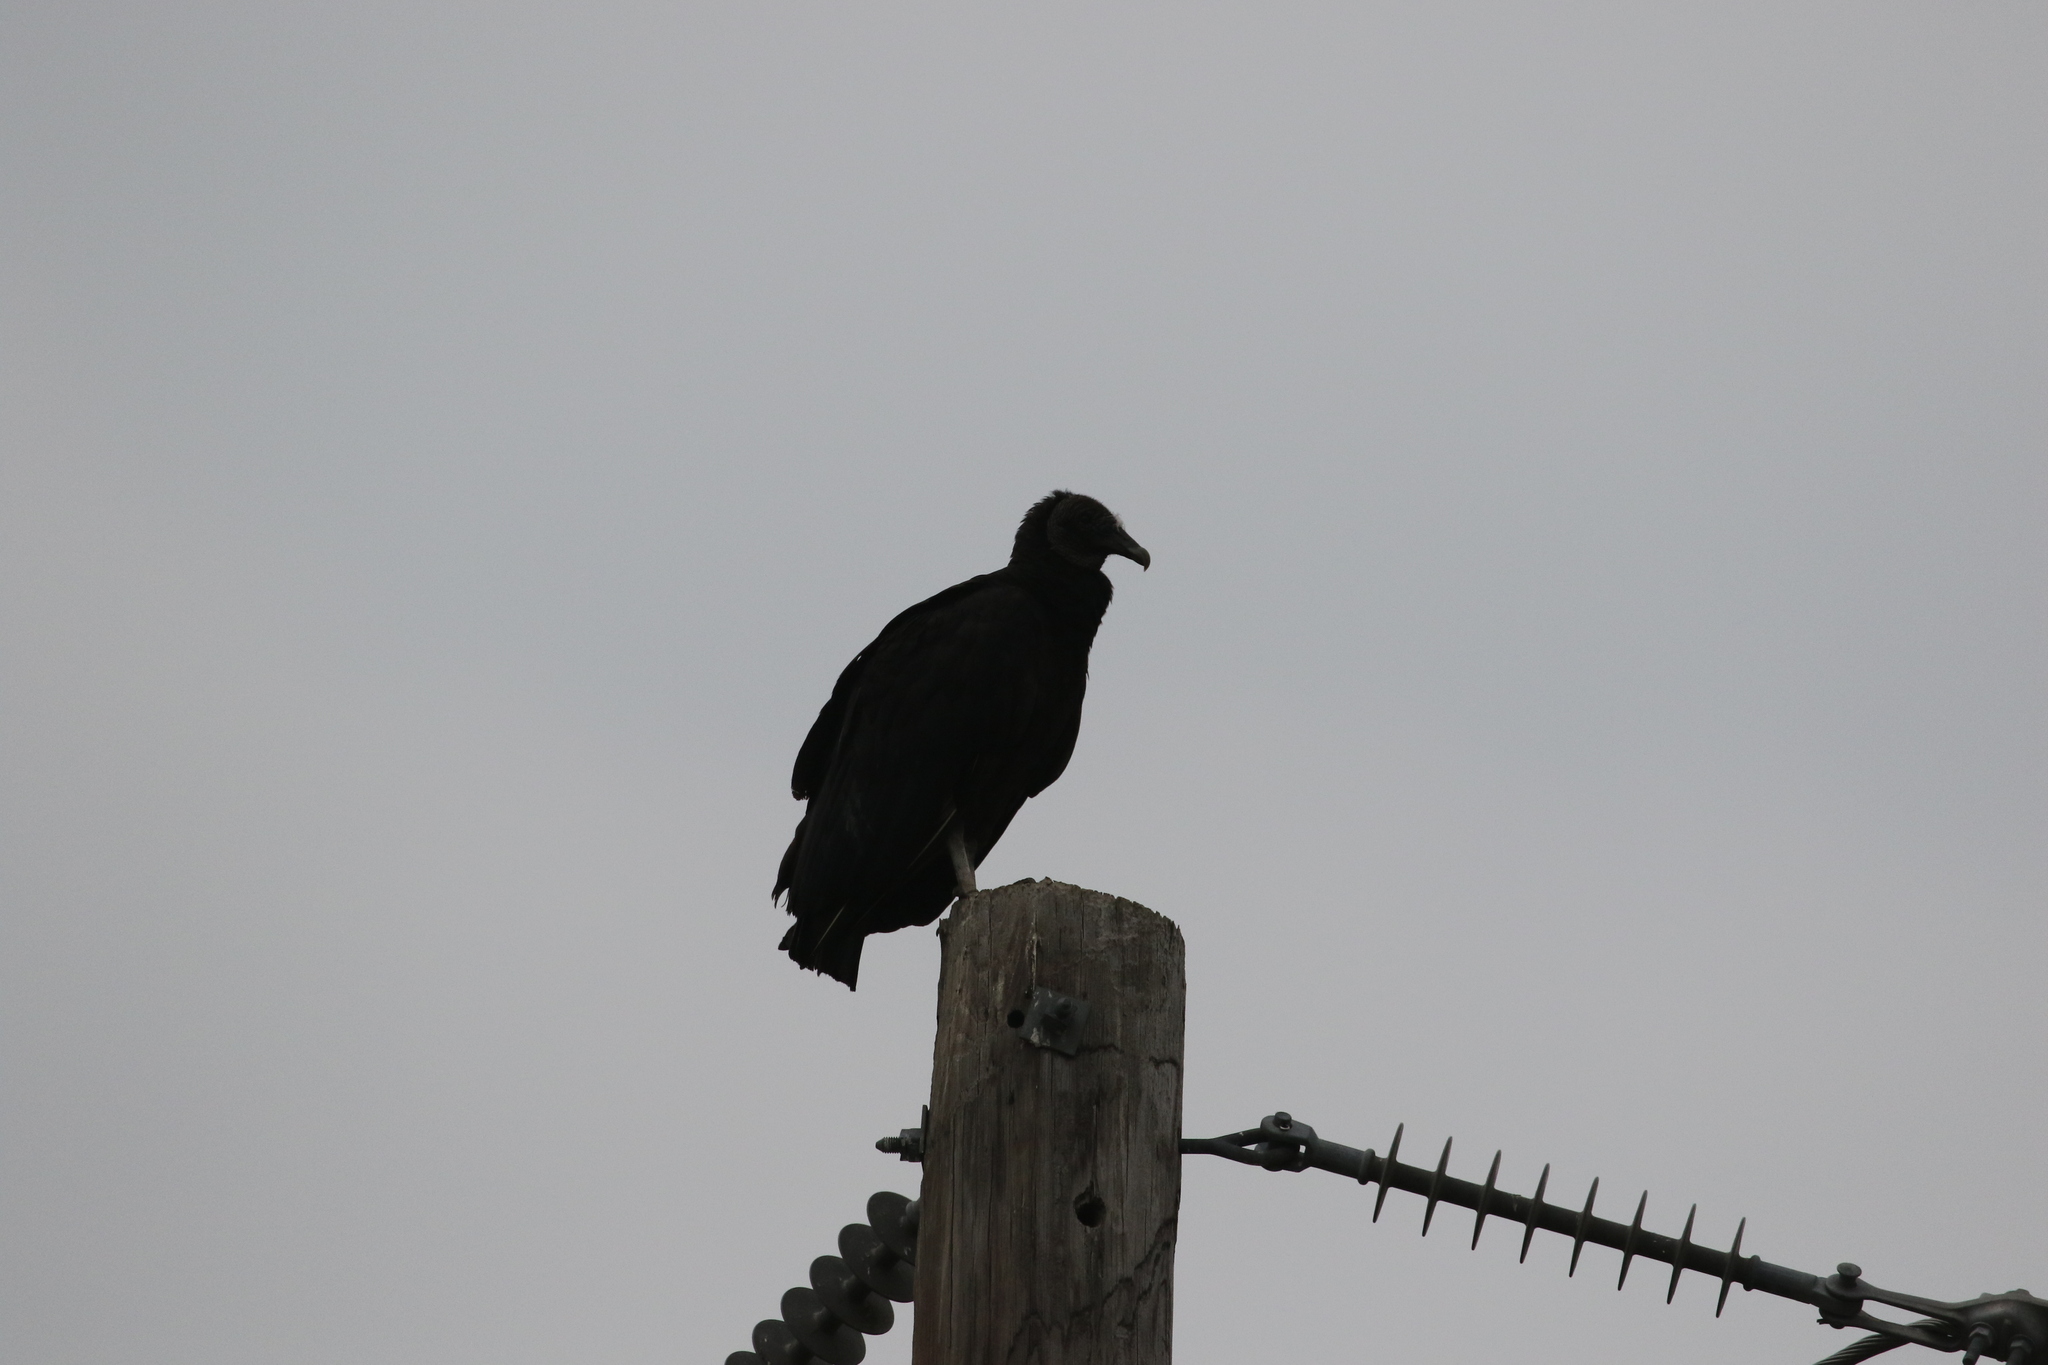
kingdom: Animalia
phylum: Chordata
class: Aves
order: Accipitriformes
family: Cathartidae
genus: Coragyps
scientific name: Coragyps atratus
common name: Black vulture
